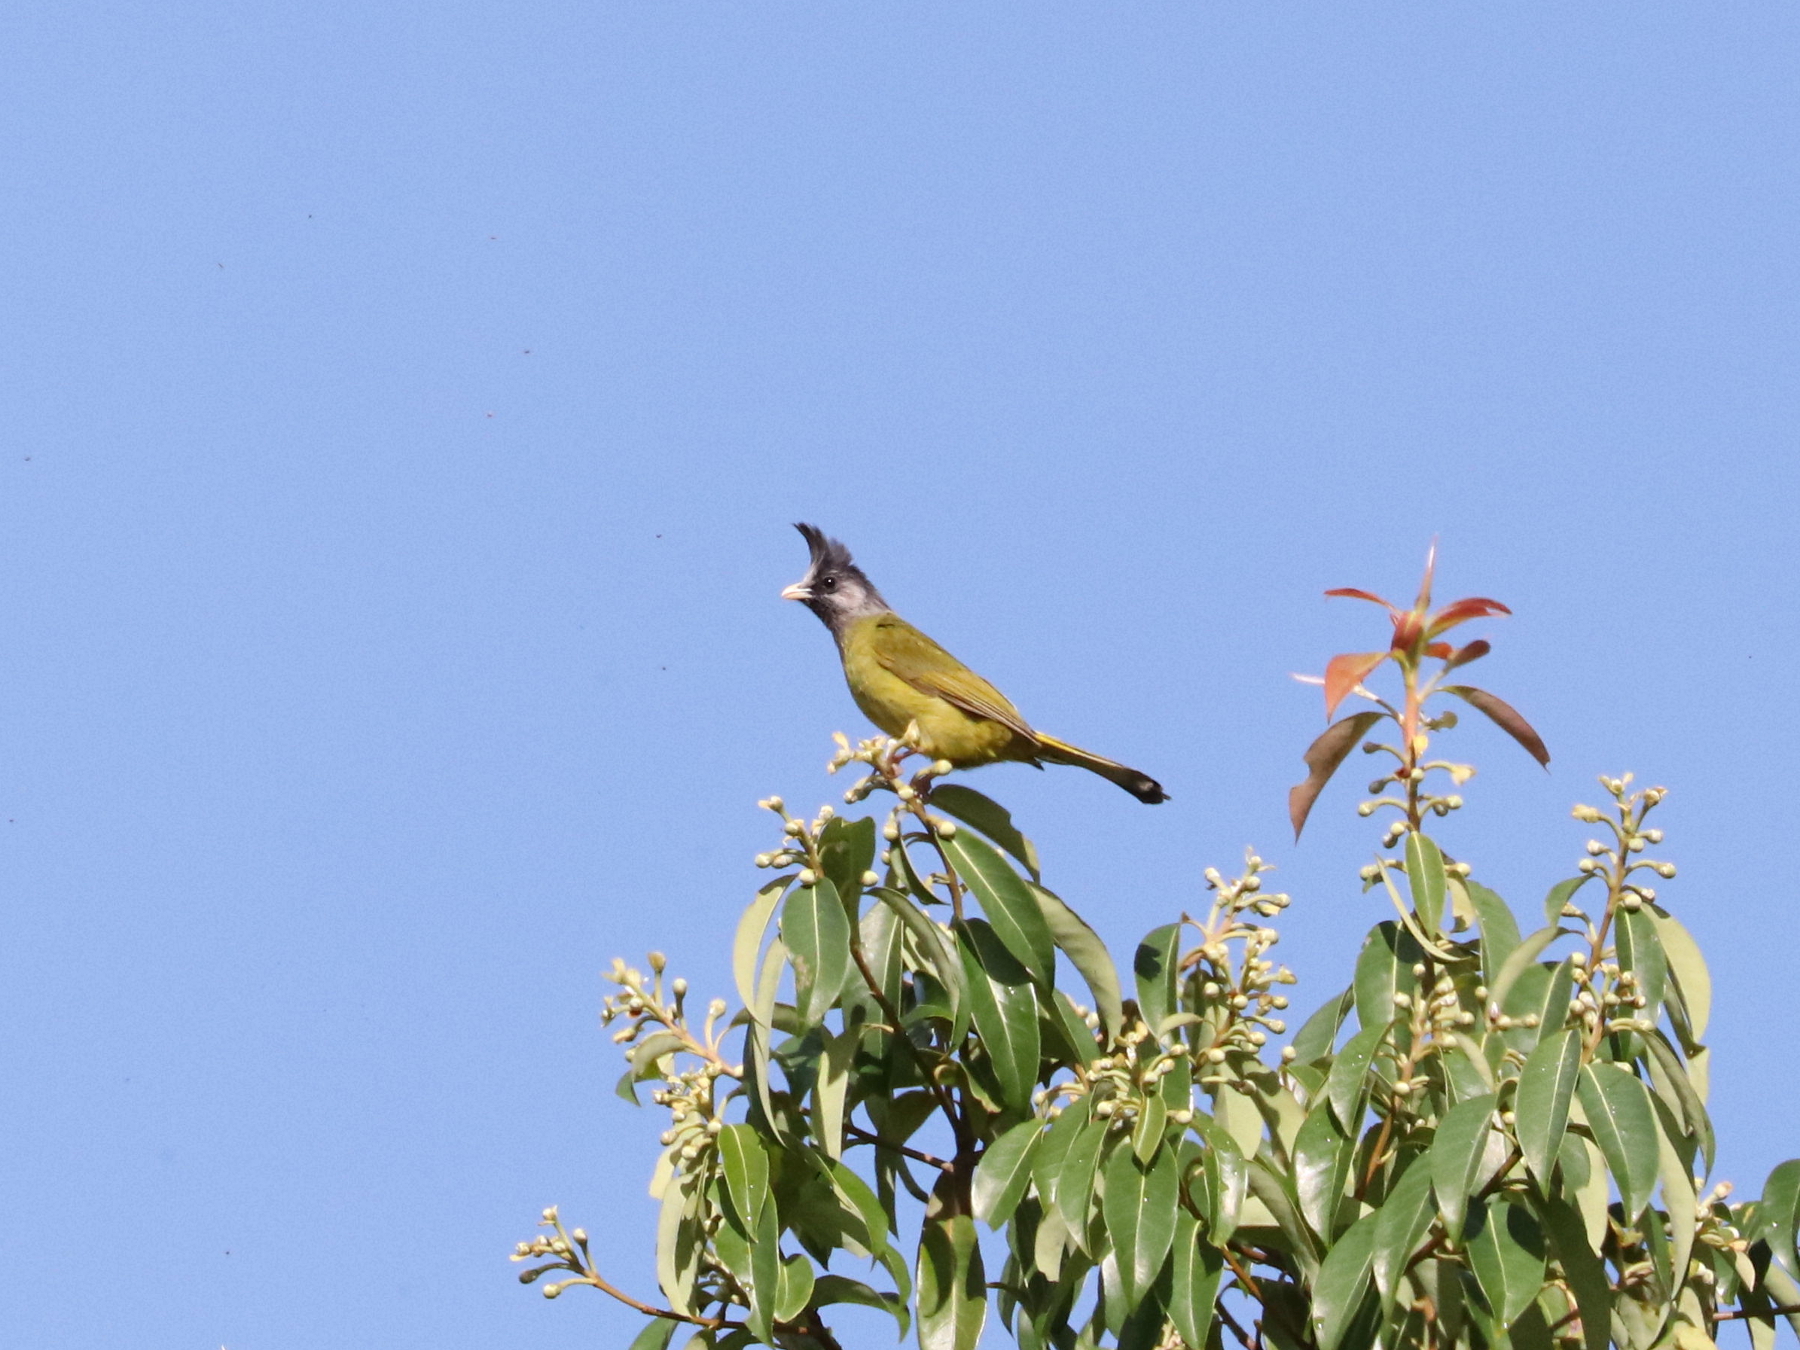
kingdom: Animalia
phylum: Chordata
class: Aves
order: Passeriformes
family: Pycnonotidae
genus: Spizixos
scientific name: Spizixos canifrons
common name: Crested finchbill
